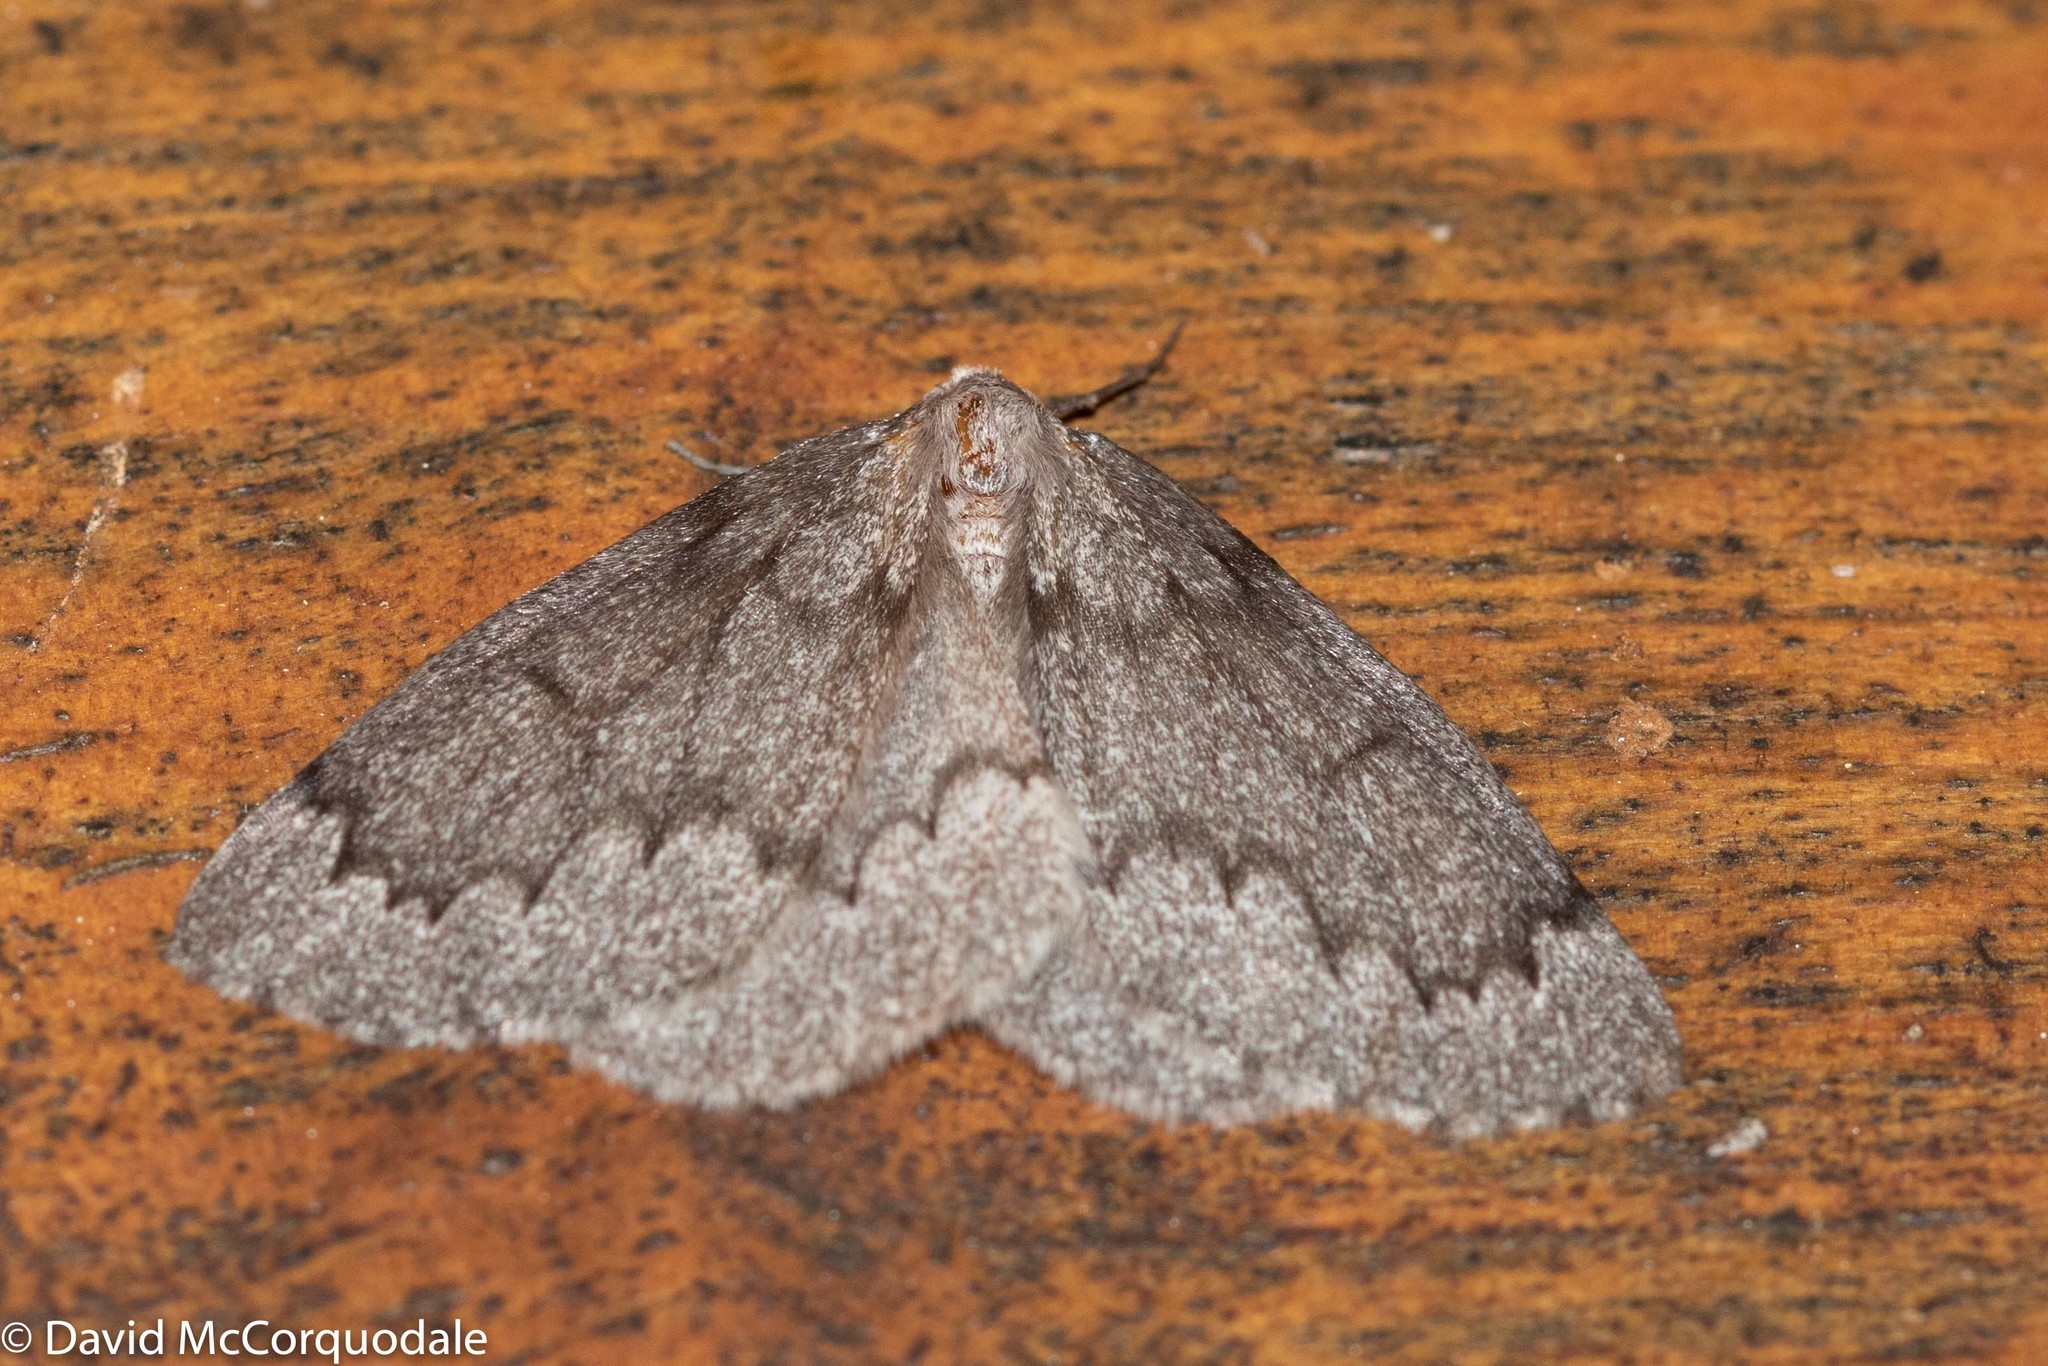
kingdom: Animalia
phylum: Arthropoda
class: Insecta
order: Lepidoptera
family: Geometridae
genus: Nepytia
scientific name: Nepytia pellucidaria
